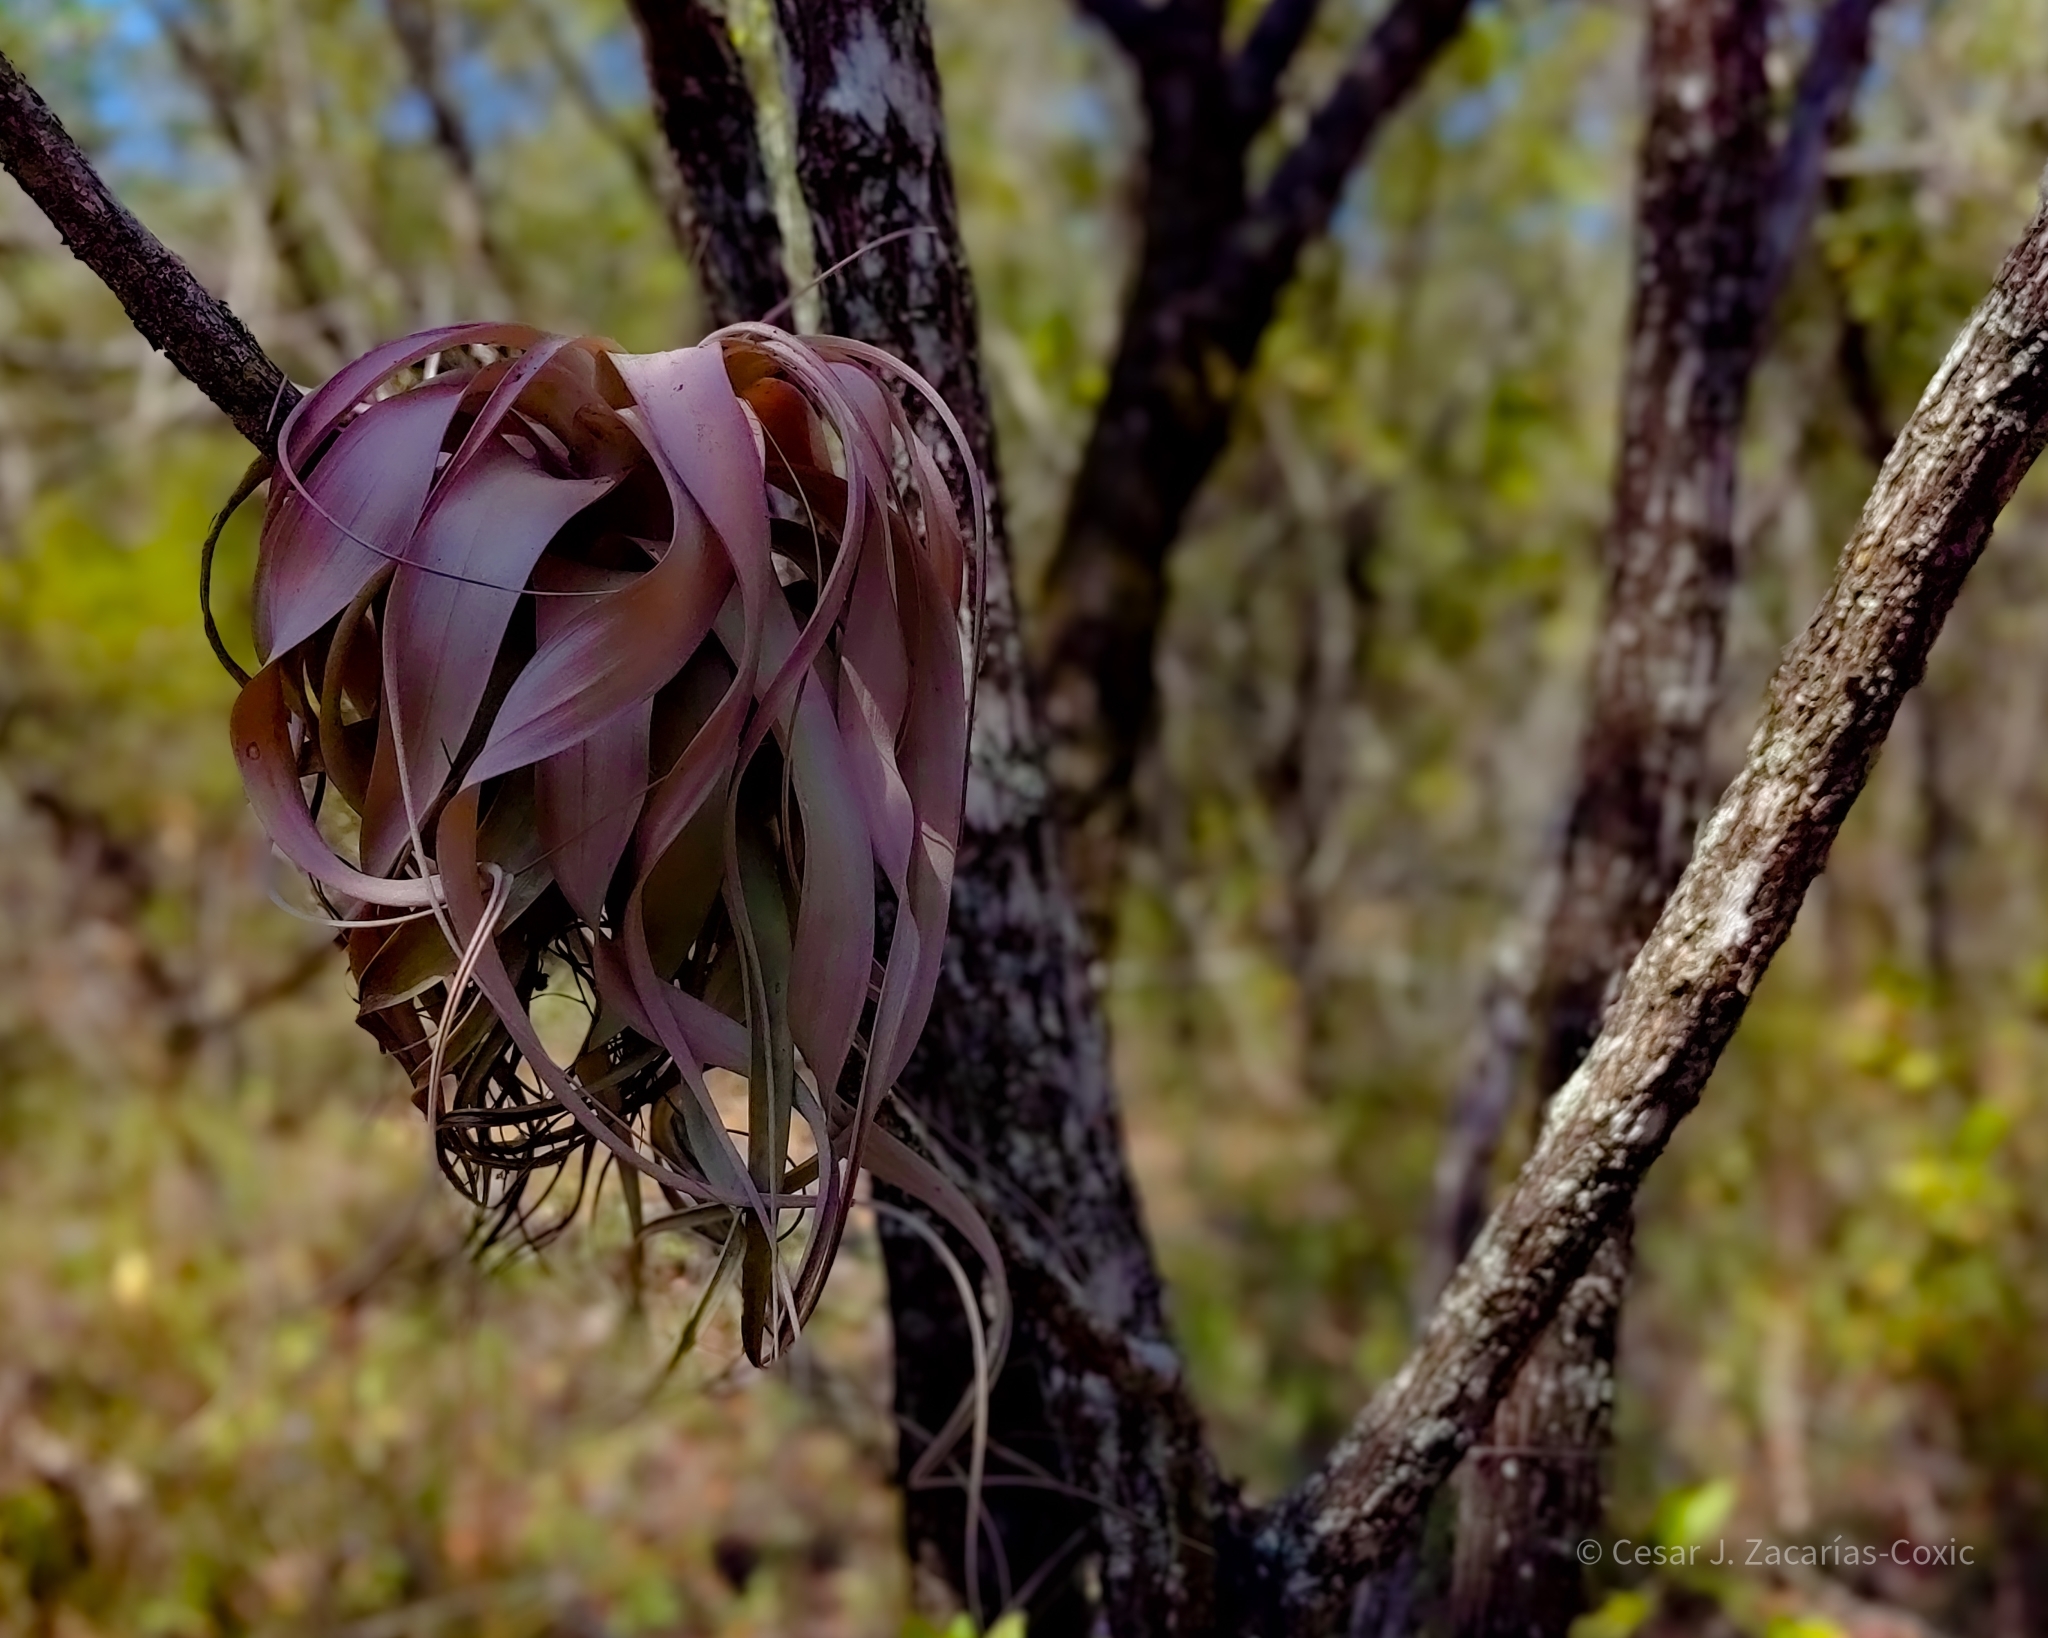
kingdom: Plantae
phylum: Tracheophyta
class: Liliopsida
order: Poales
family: Bromeliaceae
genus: Tillandsia
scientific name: Tillandsia xerographica
